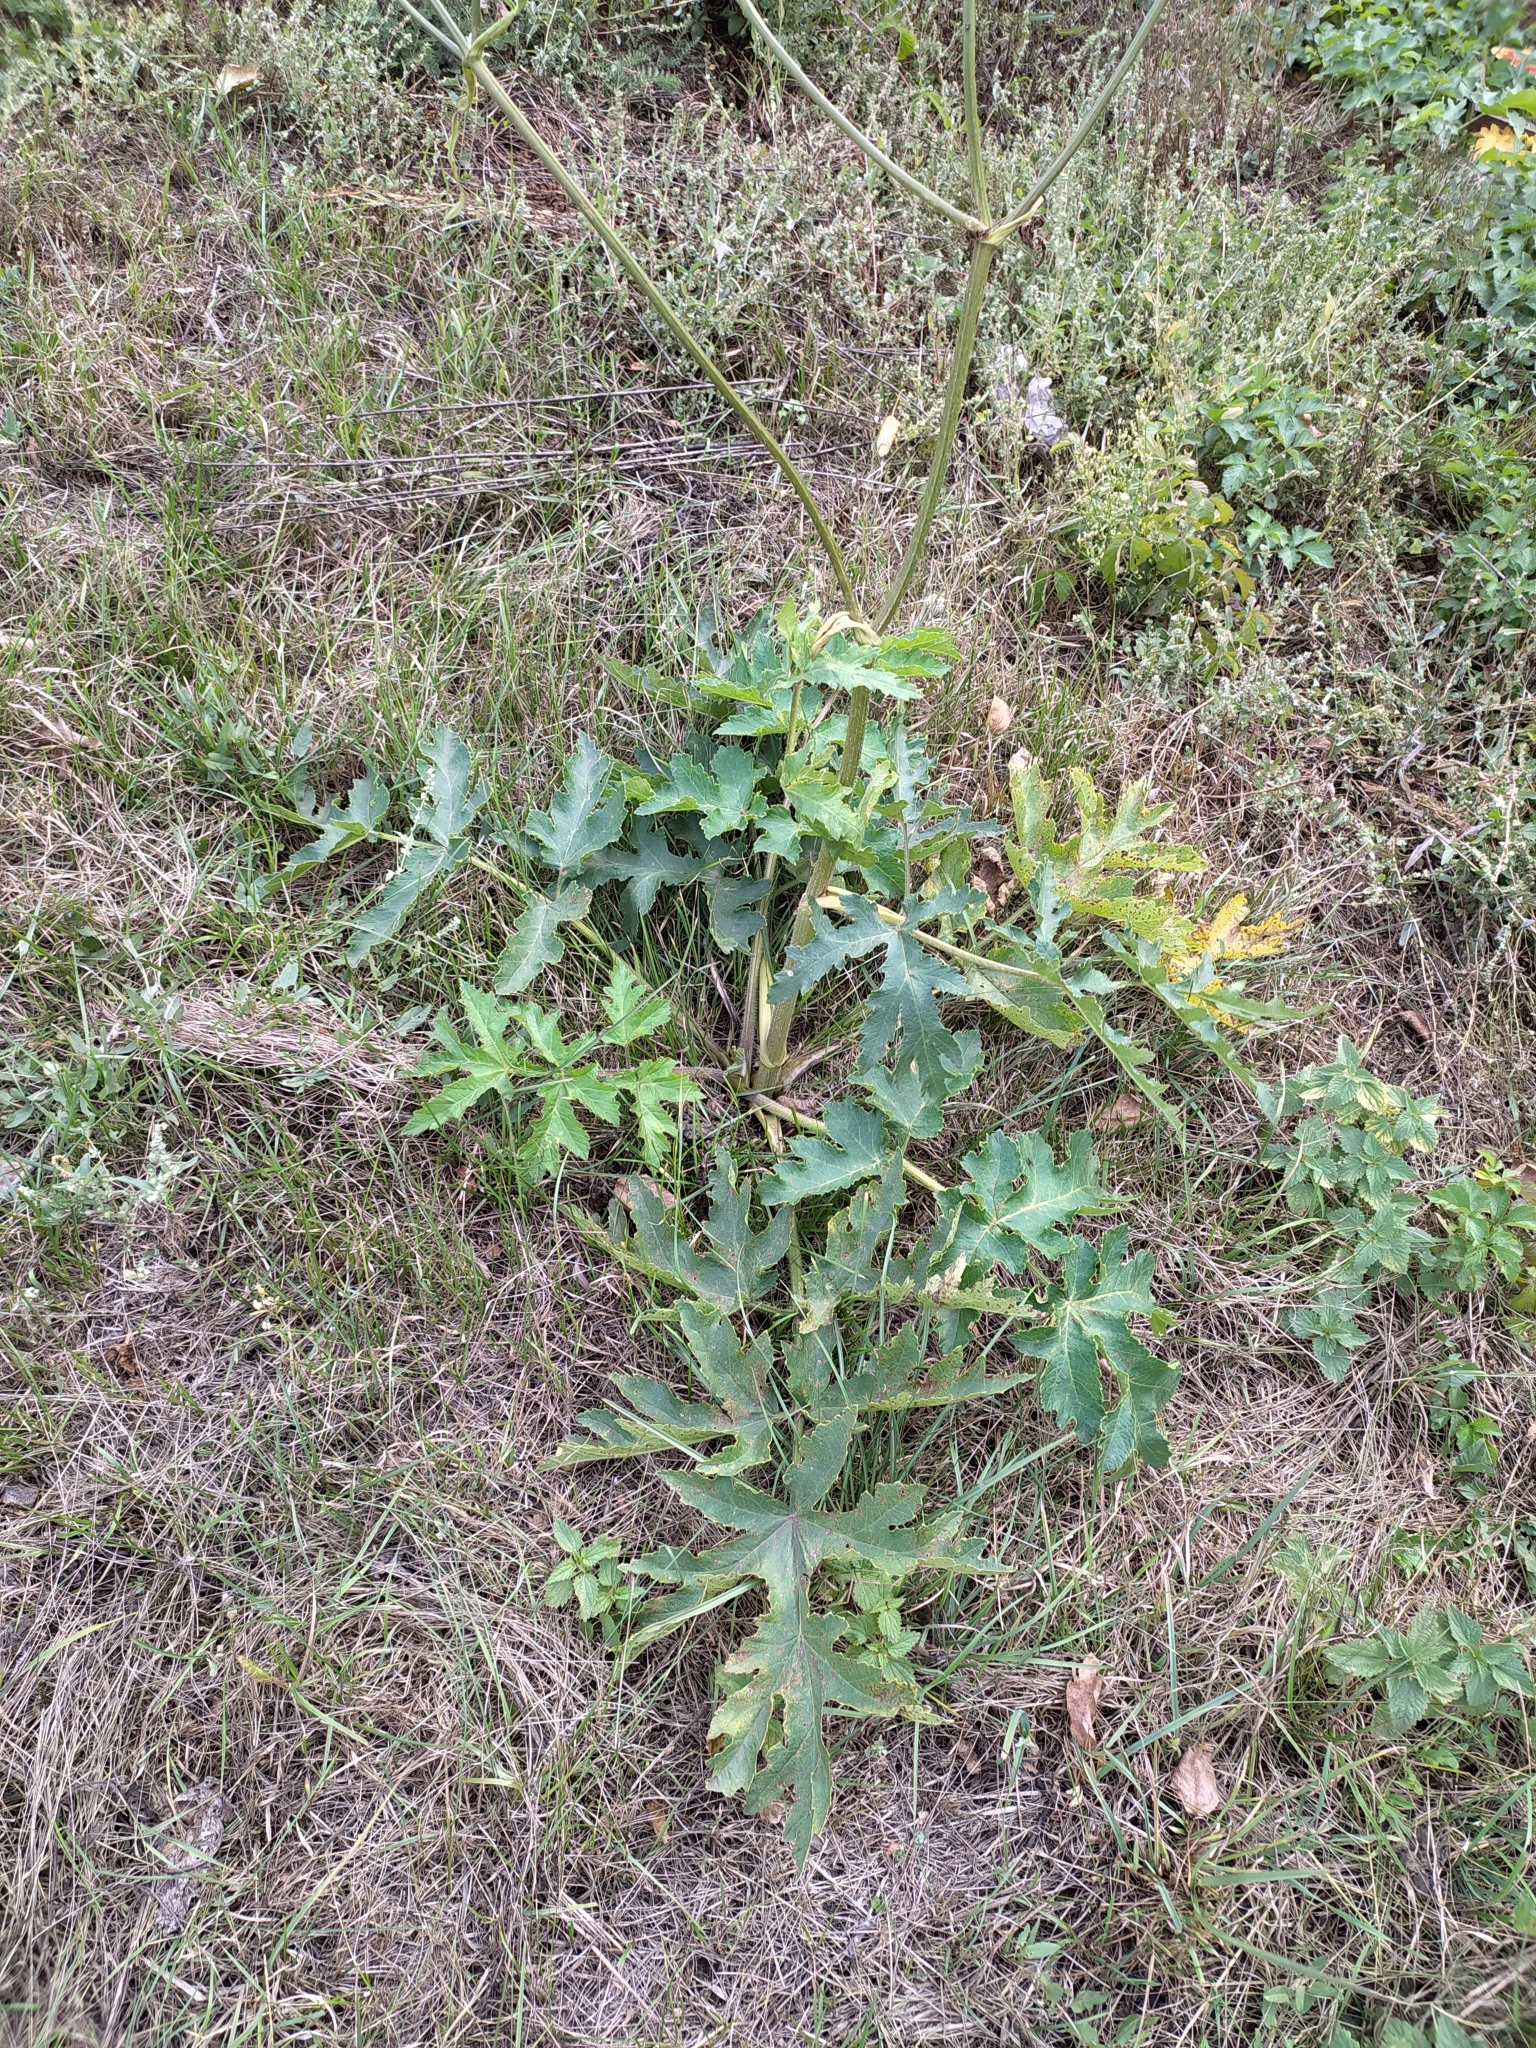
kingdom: Plantae
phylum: Tracheophyta
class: Magnoliopsida
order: Apiales
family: Apiaceae
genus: Heracleum
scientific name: Heracleum sphondylium
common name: Hogweed
